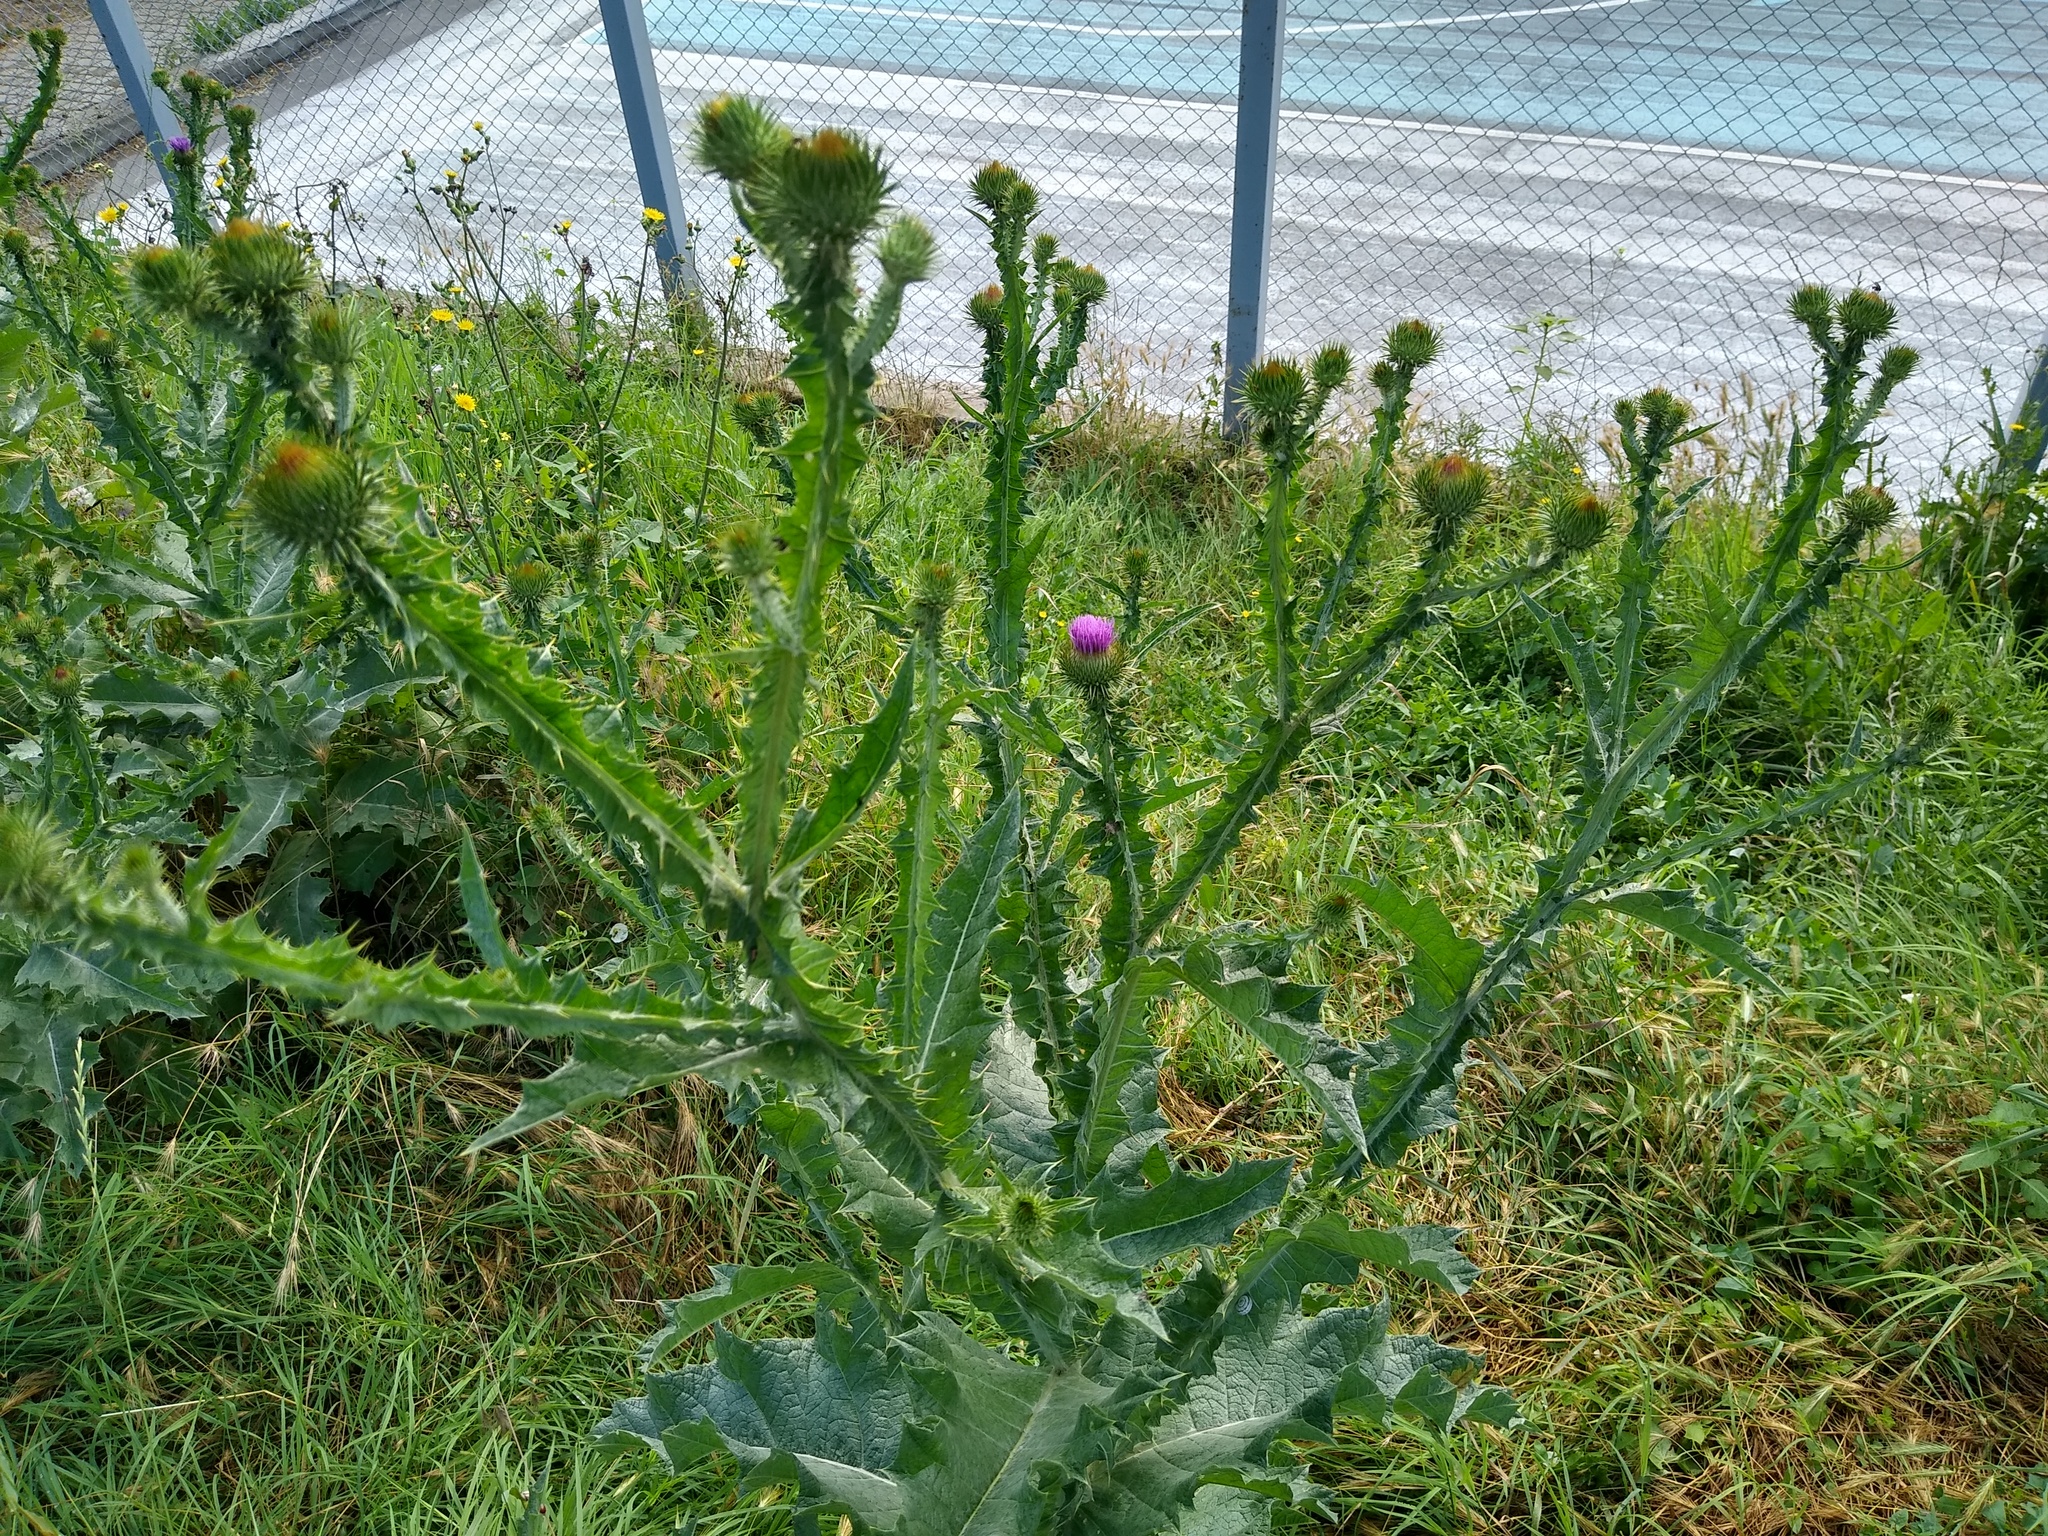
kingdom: Plantae
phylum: Tracheophyta
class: Magnoliopsida
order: Asterales
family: Asteraceae
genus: Onopordum
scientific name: Onopordum acanthium
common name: Scotch thistle
